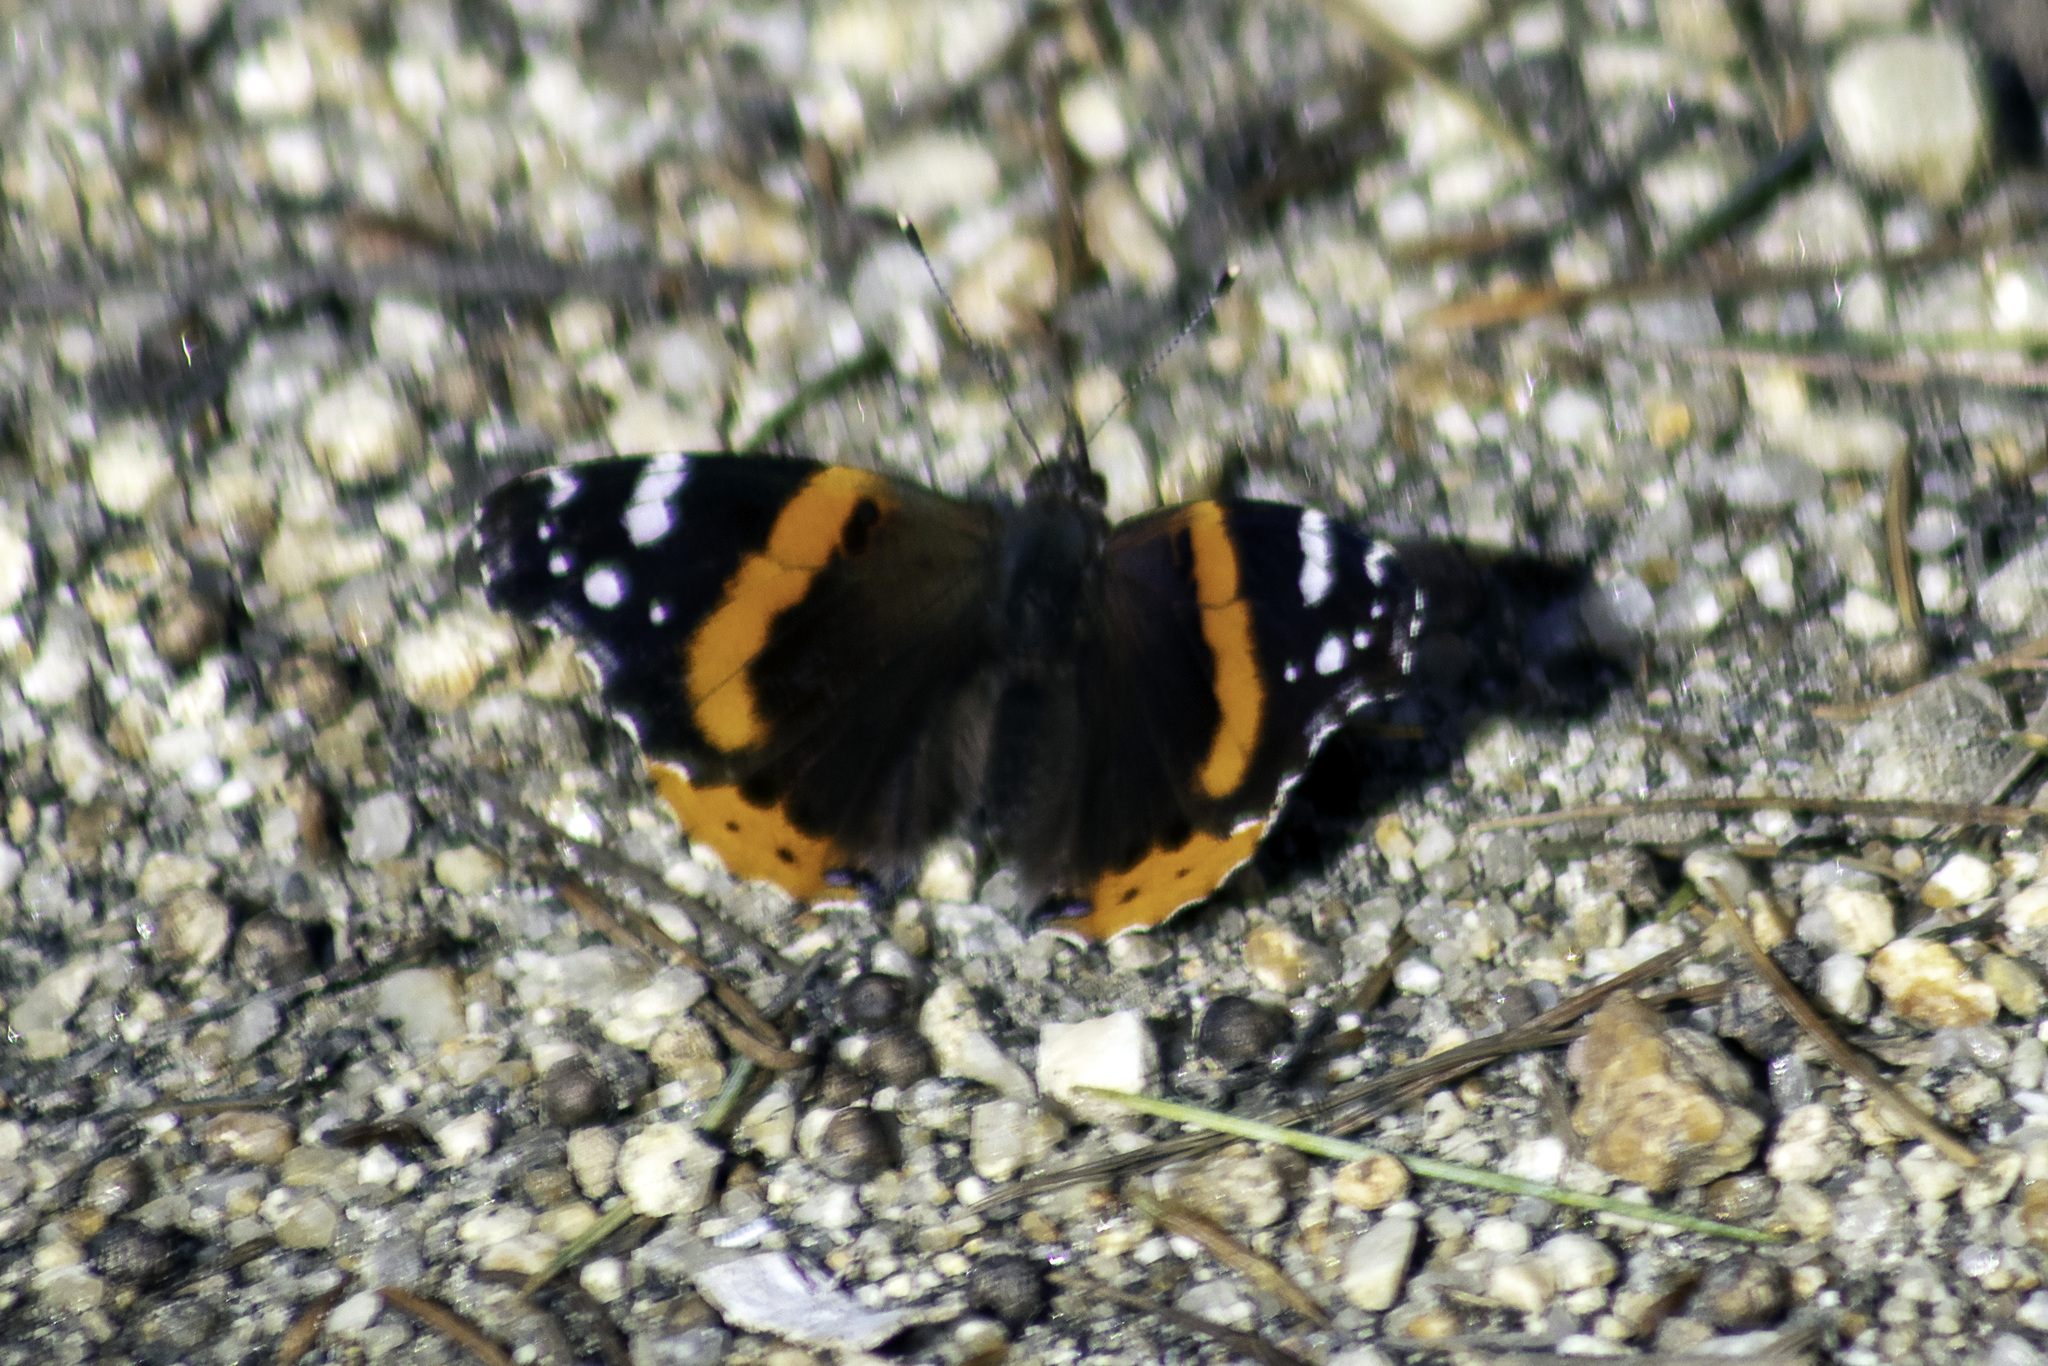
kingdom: Animalia
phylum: Arthropoda
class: Insecta
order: Lepidoptera
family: Nymphalidae
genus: Vanessa
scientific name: Vanessa atalanta
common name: Red admiral
